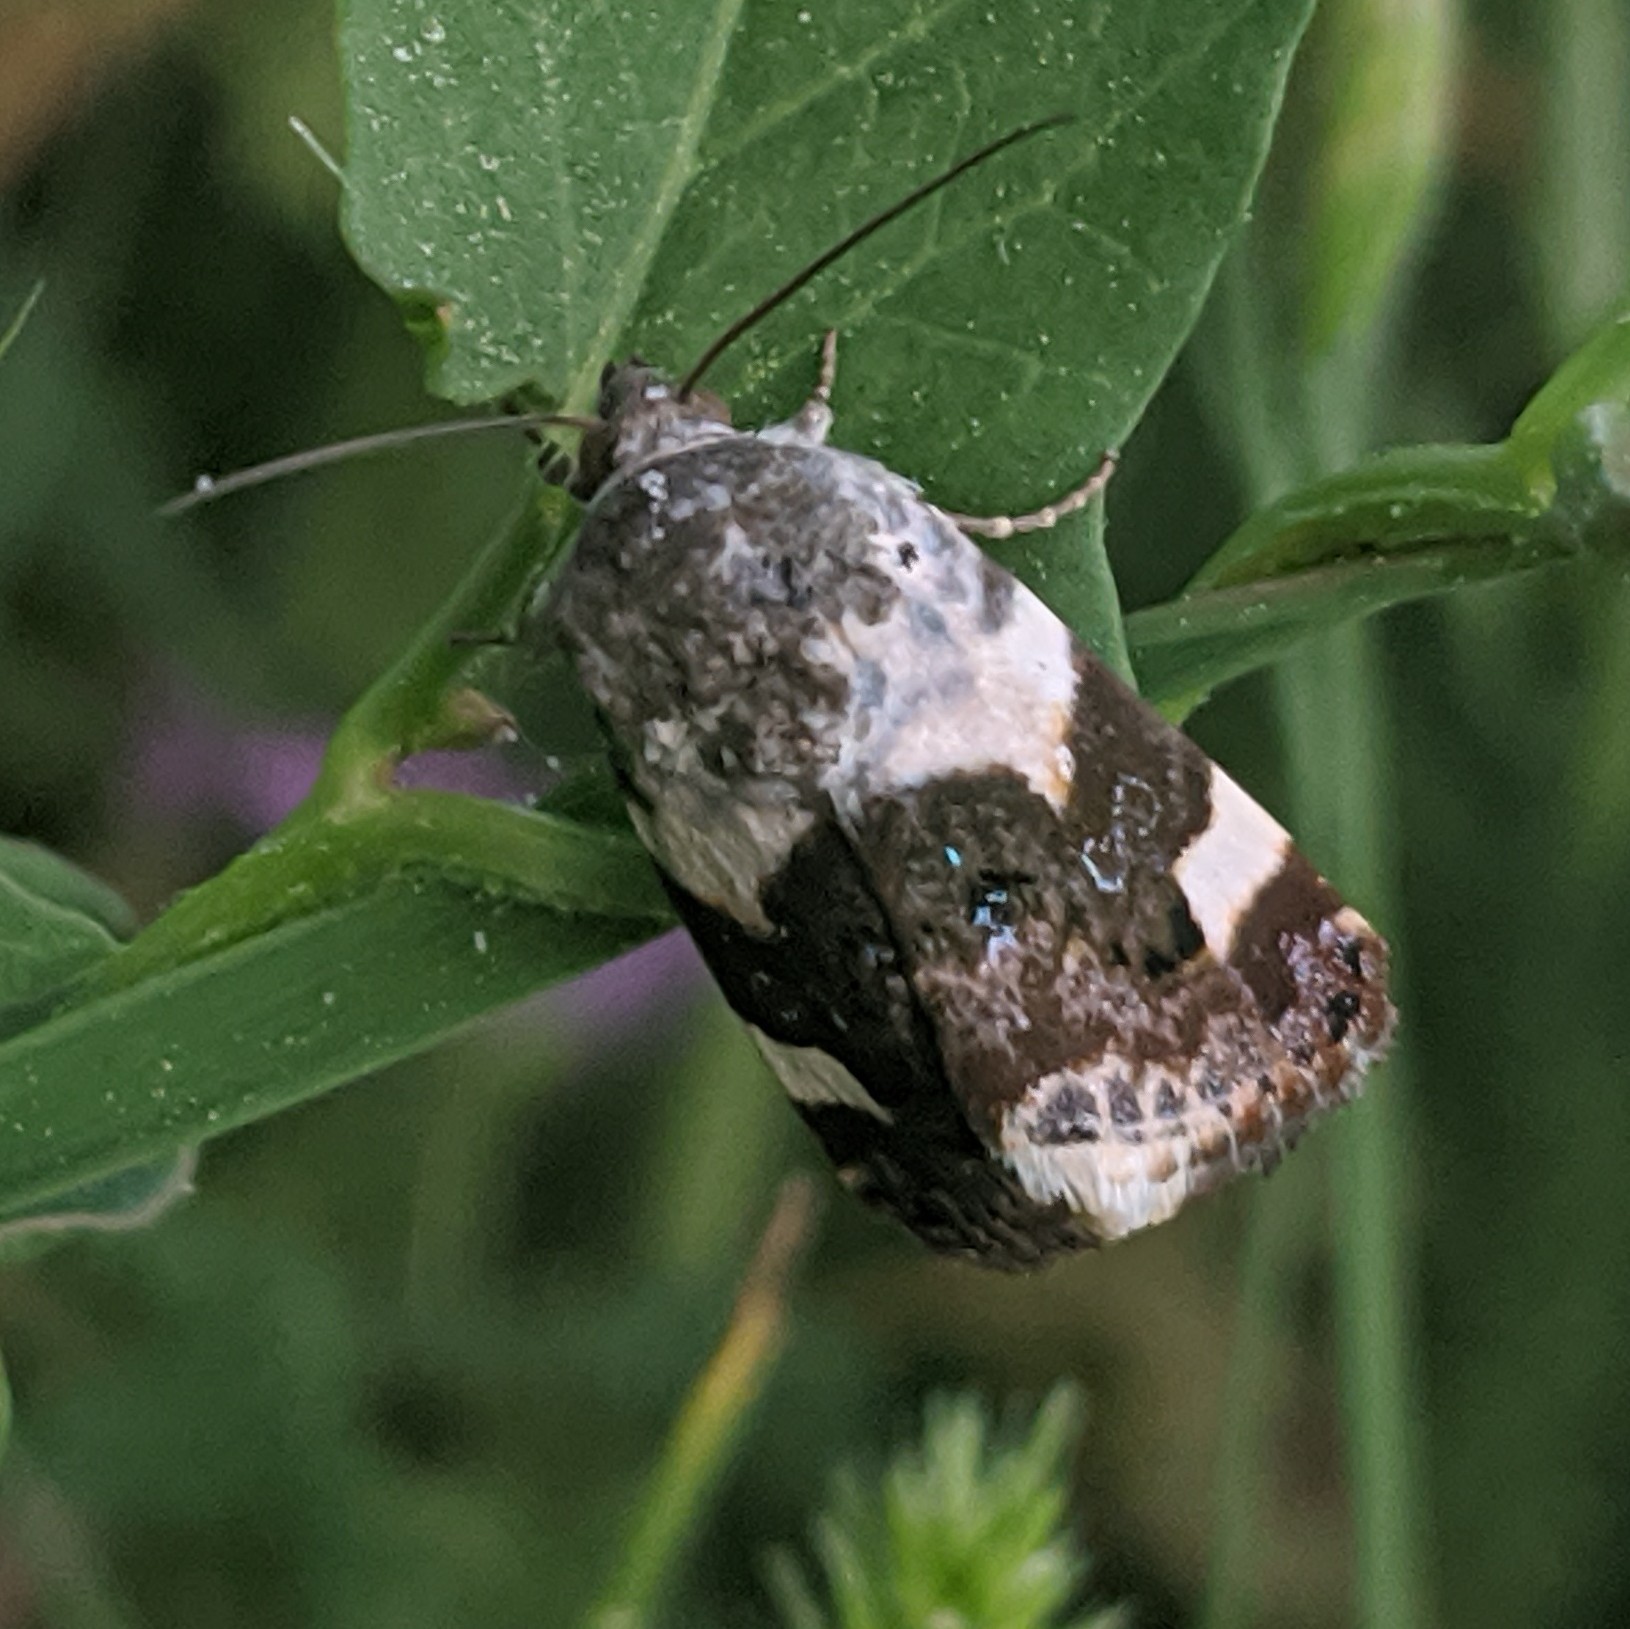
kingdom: Animalia
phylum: Arthropoda
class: Insecta
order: Lepidoptera
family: Noctuidae
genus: Acontia
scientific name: Acontia lucida
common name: Pale shoulder
